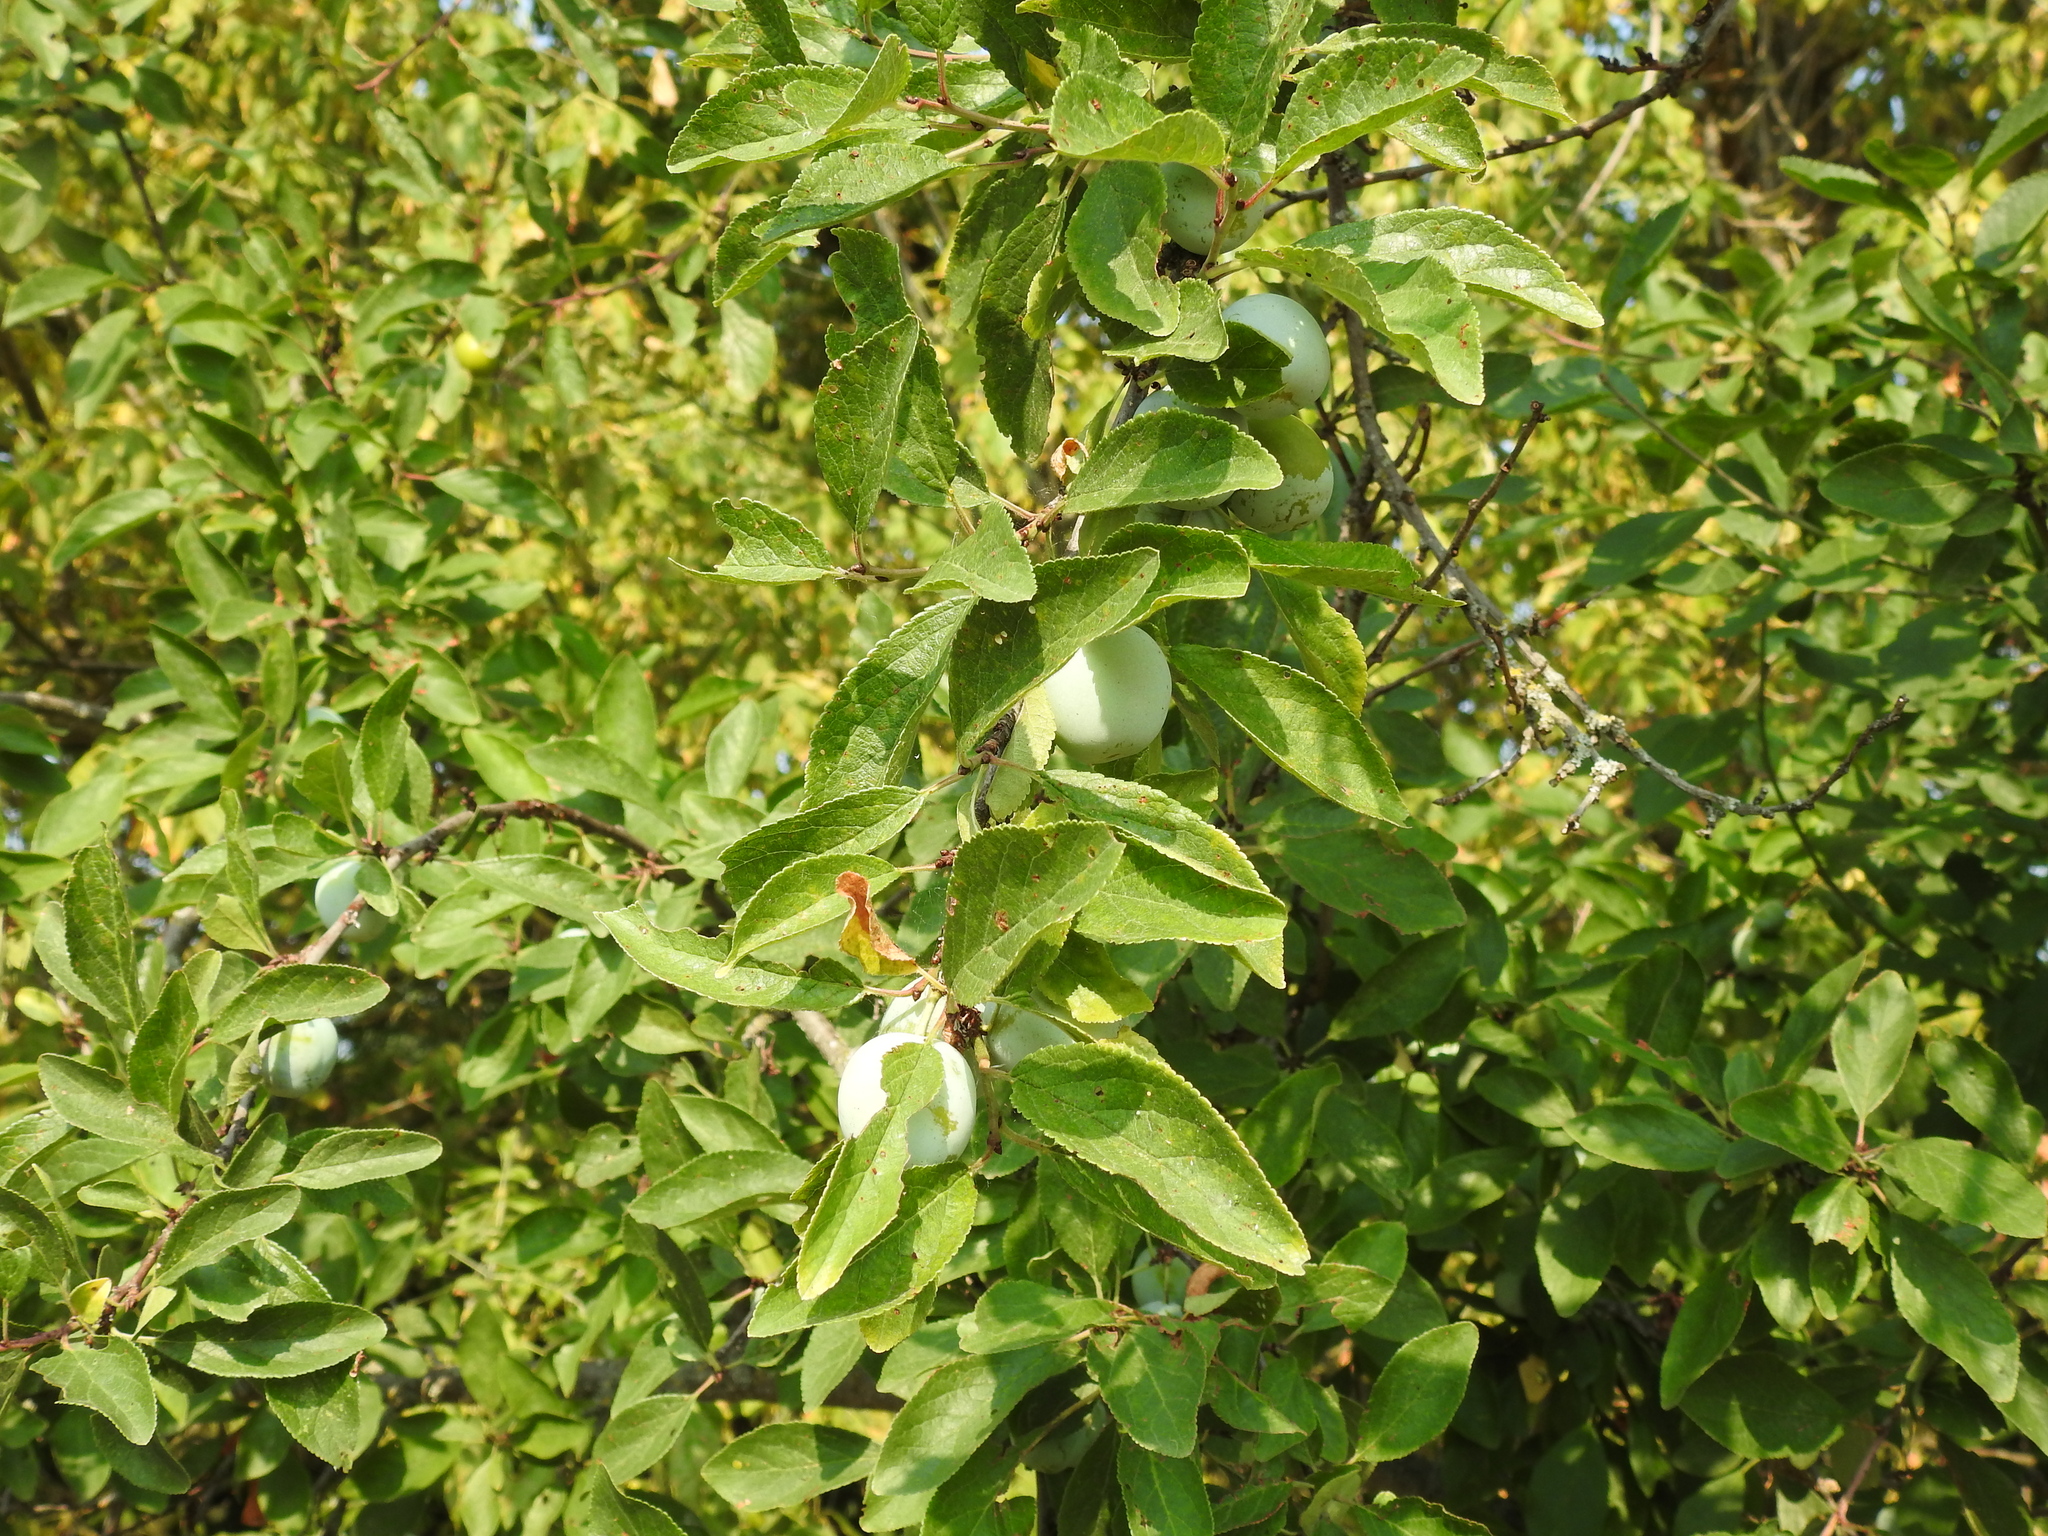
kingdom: Plantae
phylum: Tracheophyta
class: Magnoliopsida
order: Rosales
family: Rosaceae
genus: Prunus
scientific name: Prunus domestica
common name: Wild plum
